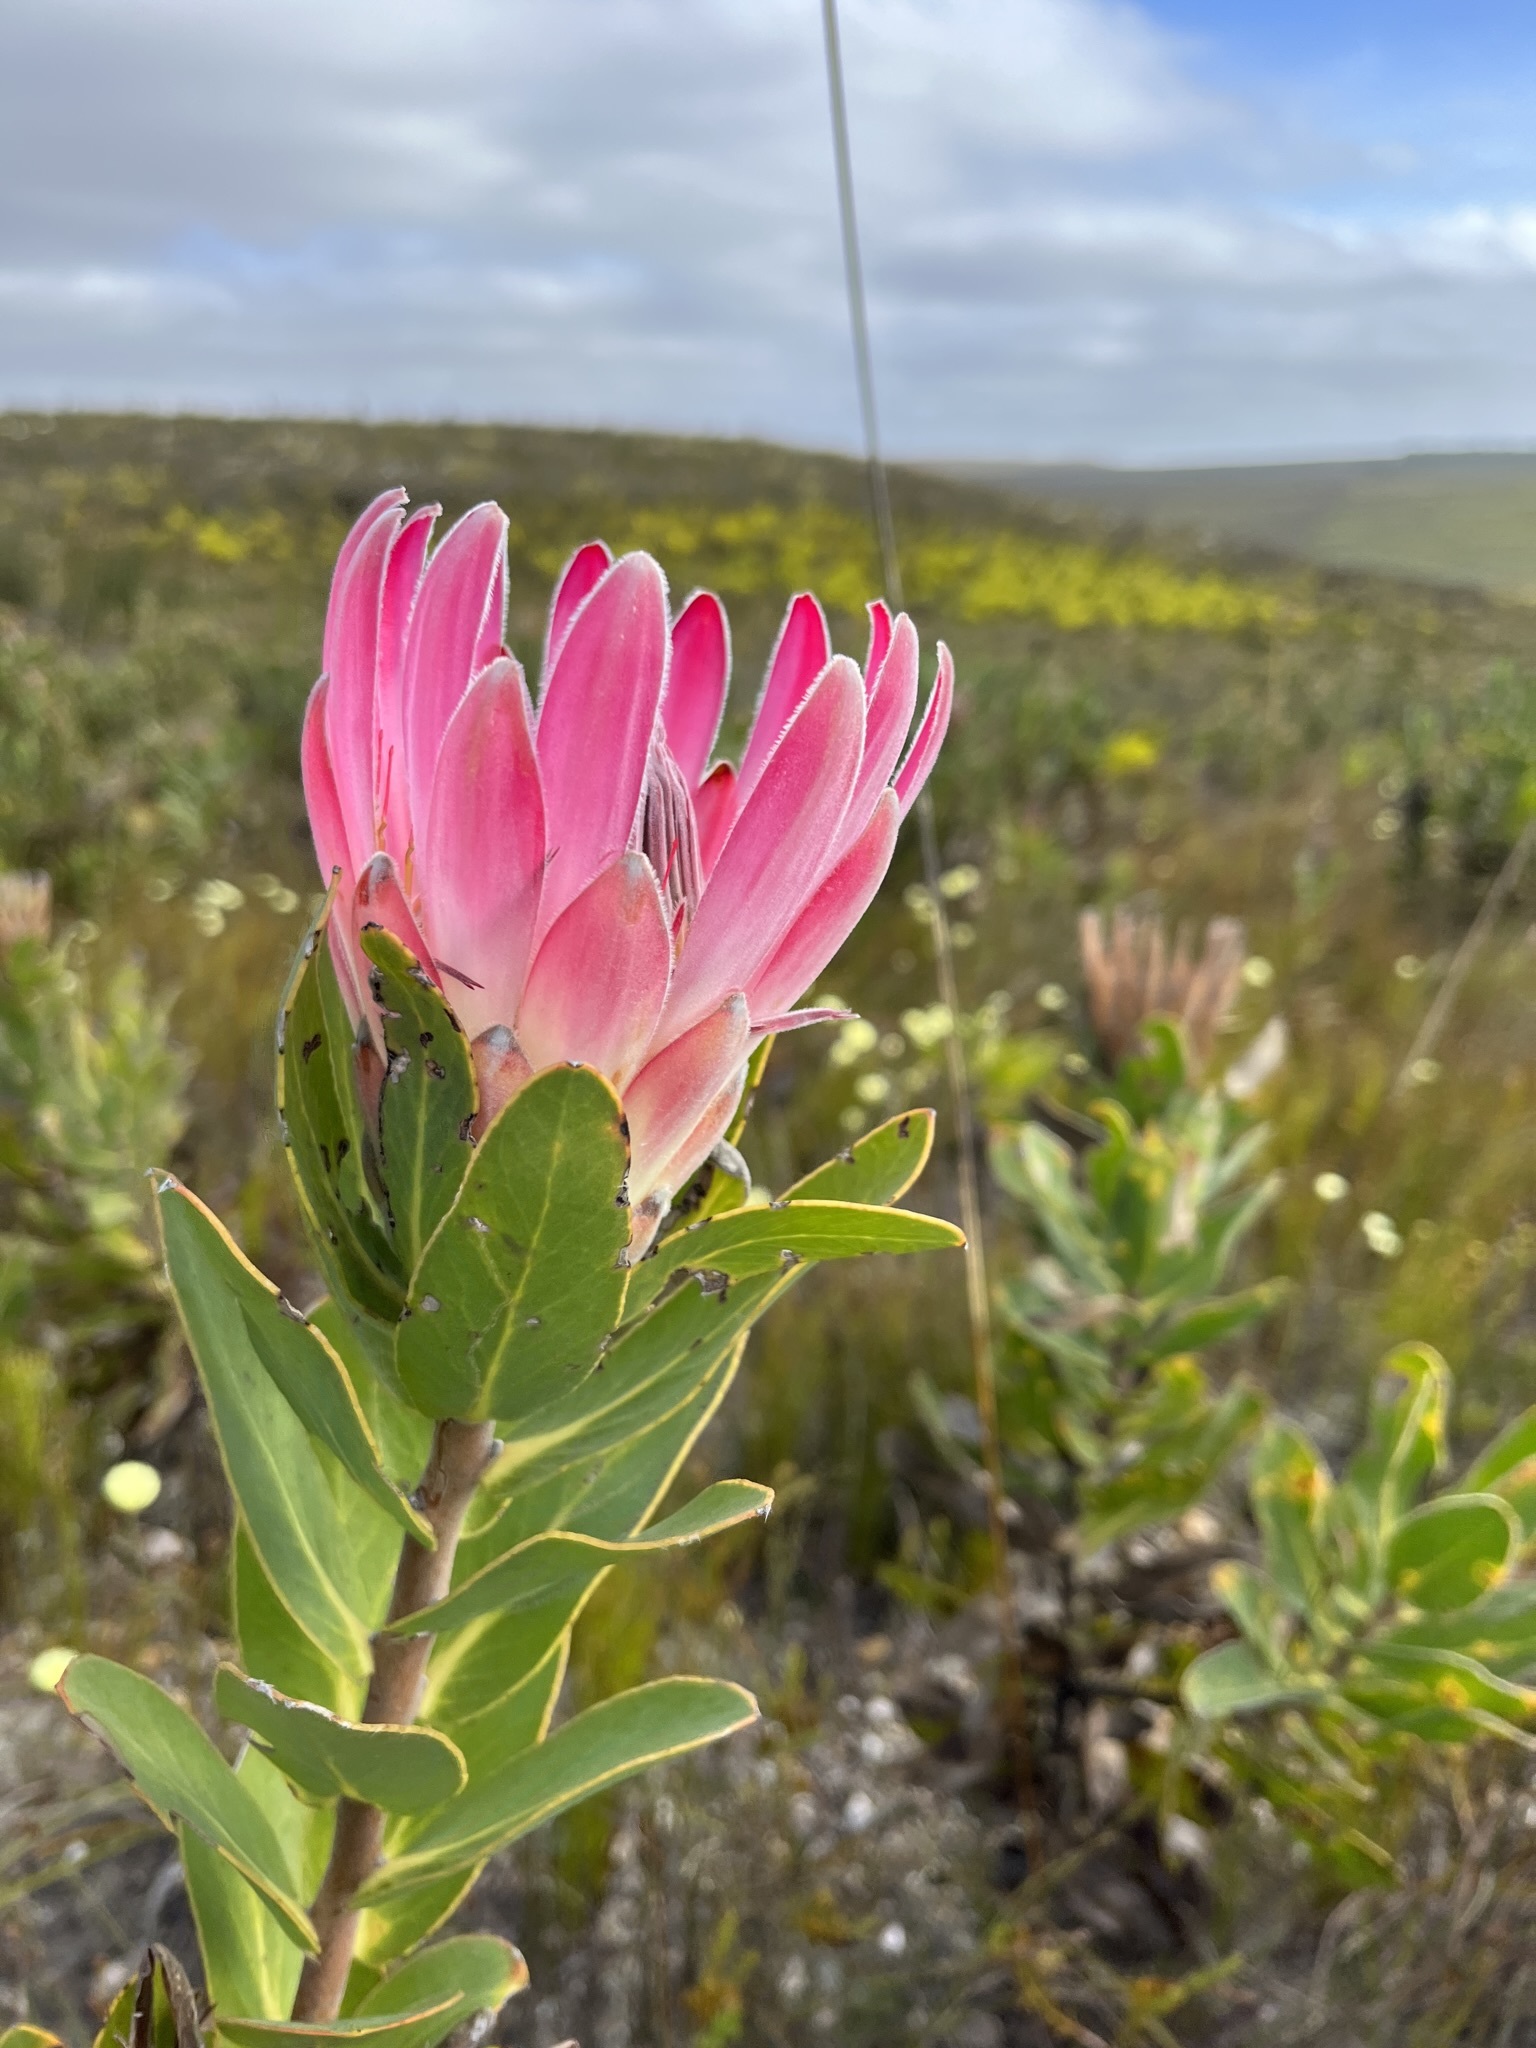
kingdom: Plantae
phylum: Tracheophyta
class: Magnoliopsida
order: Proteales
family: Proteaceae
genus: Protea
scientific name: Protea compacta
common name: Bot river protea
